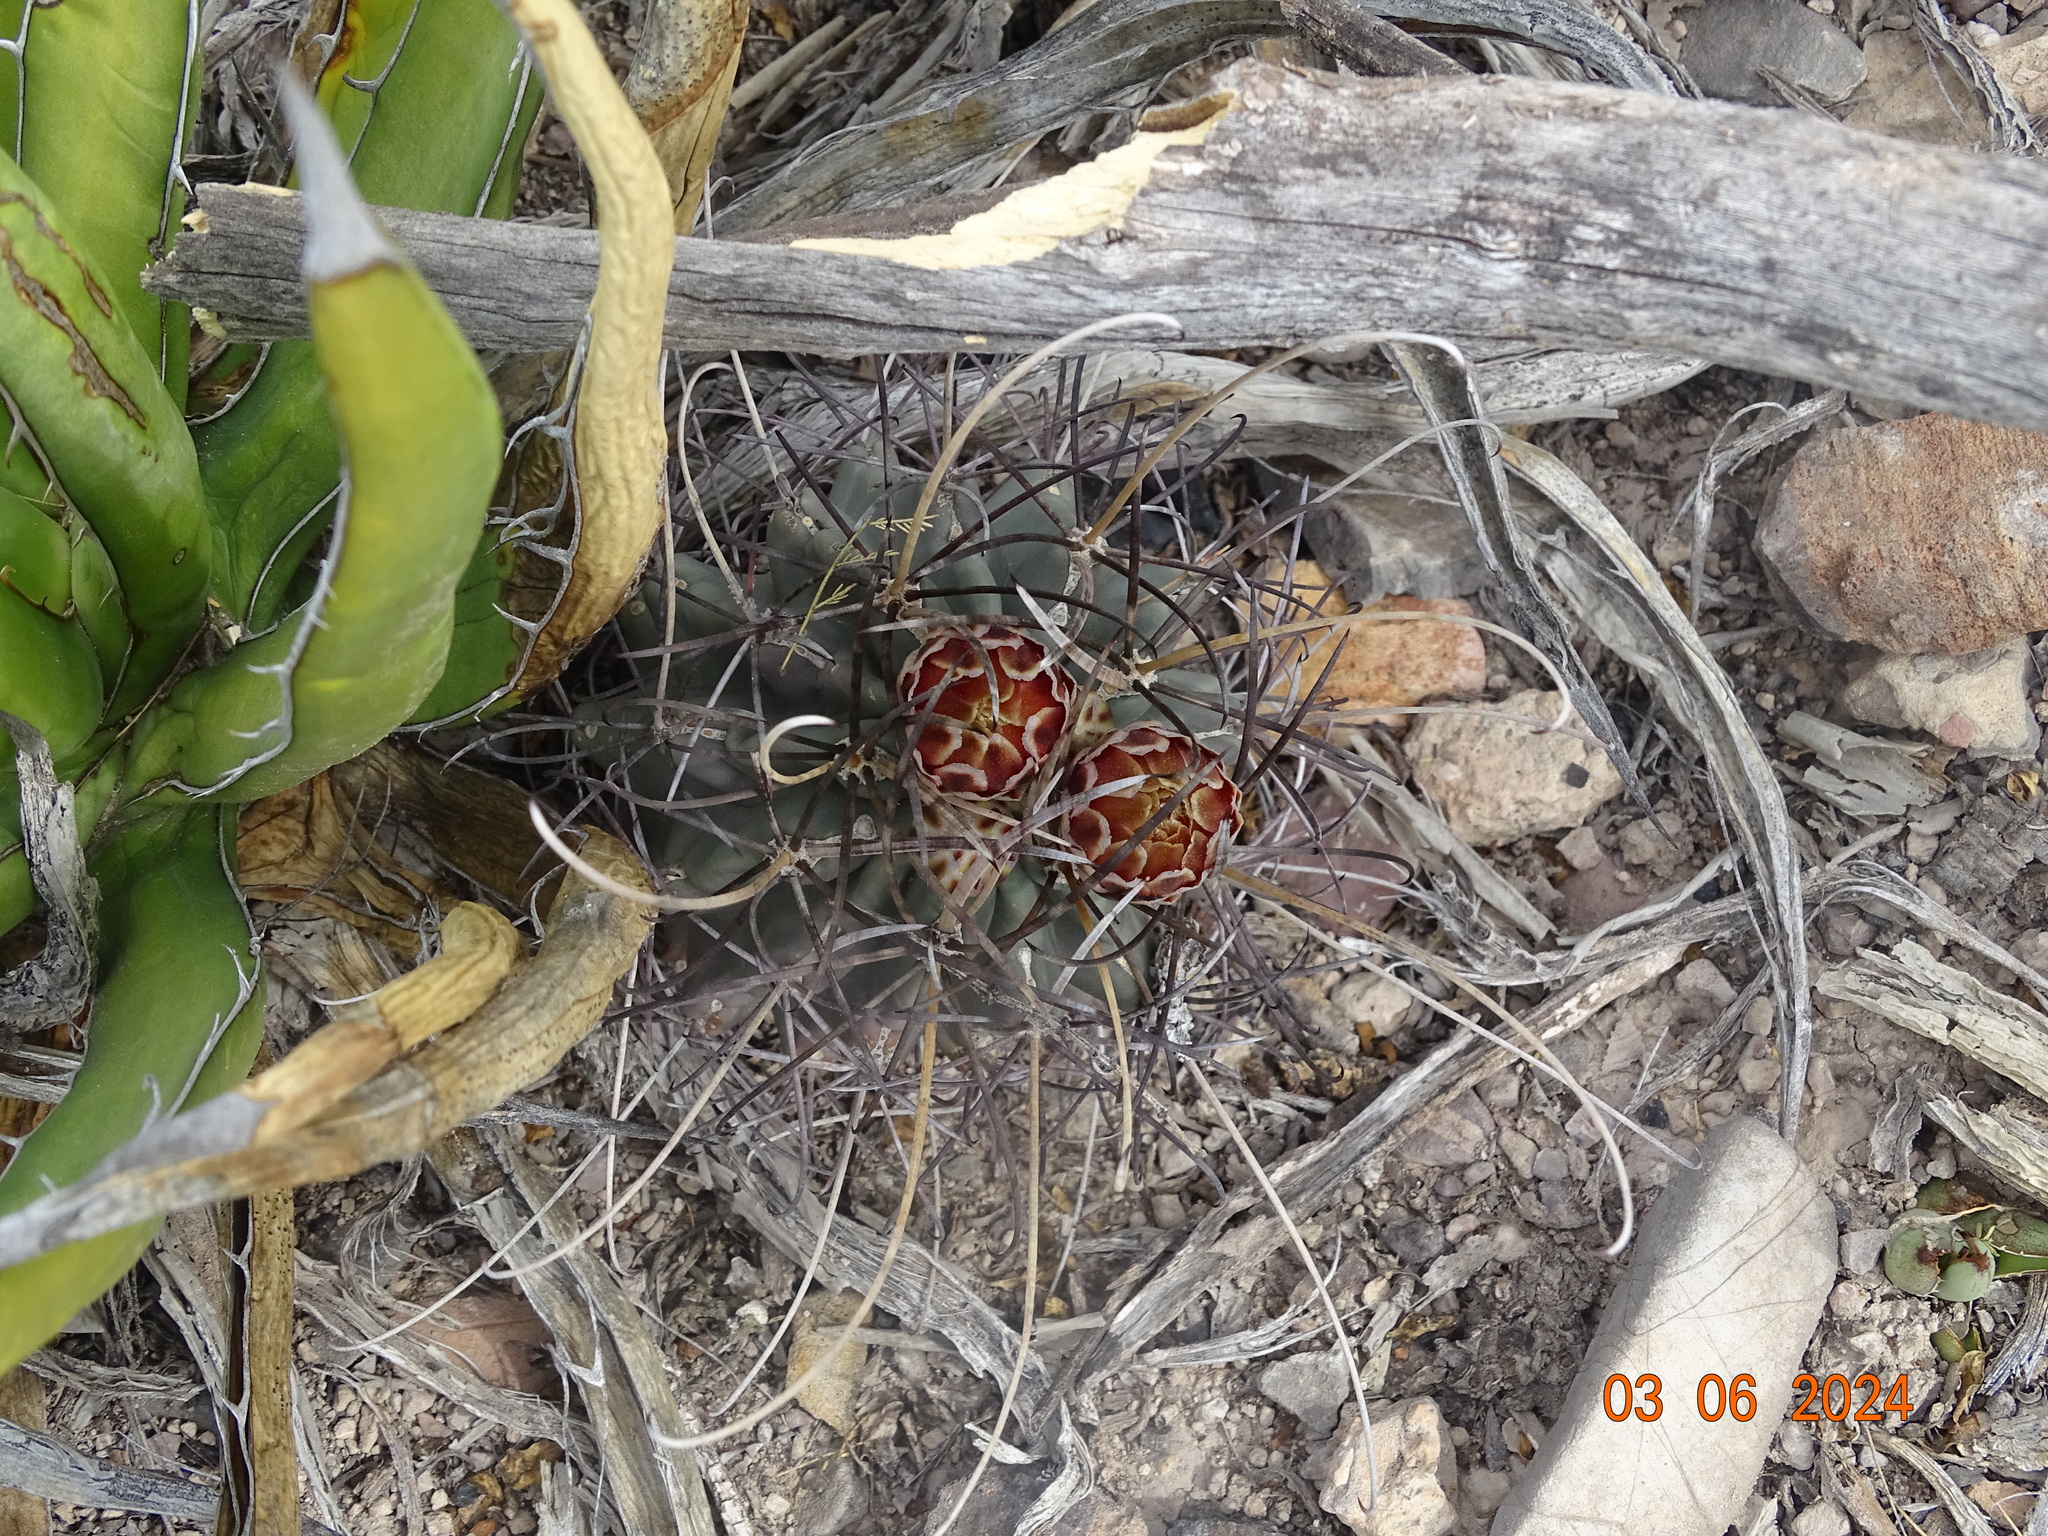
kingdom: Plantae
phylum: Tracheophyta
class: Magnoliopsida
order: Caryophyllales
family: Cactaceae
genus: Ferocactus
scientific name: Ferocactus uncinatus
